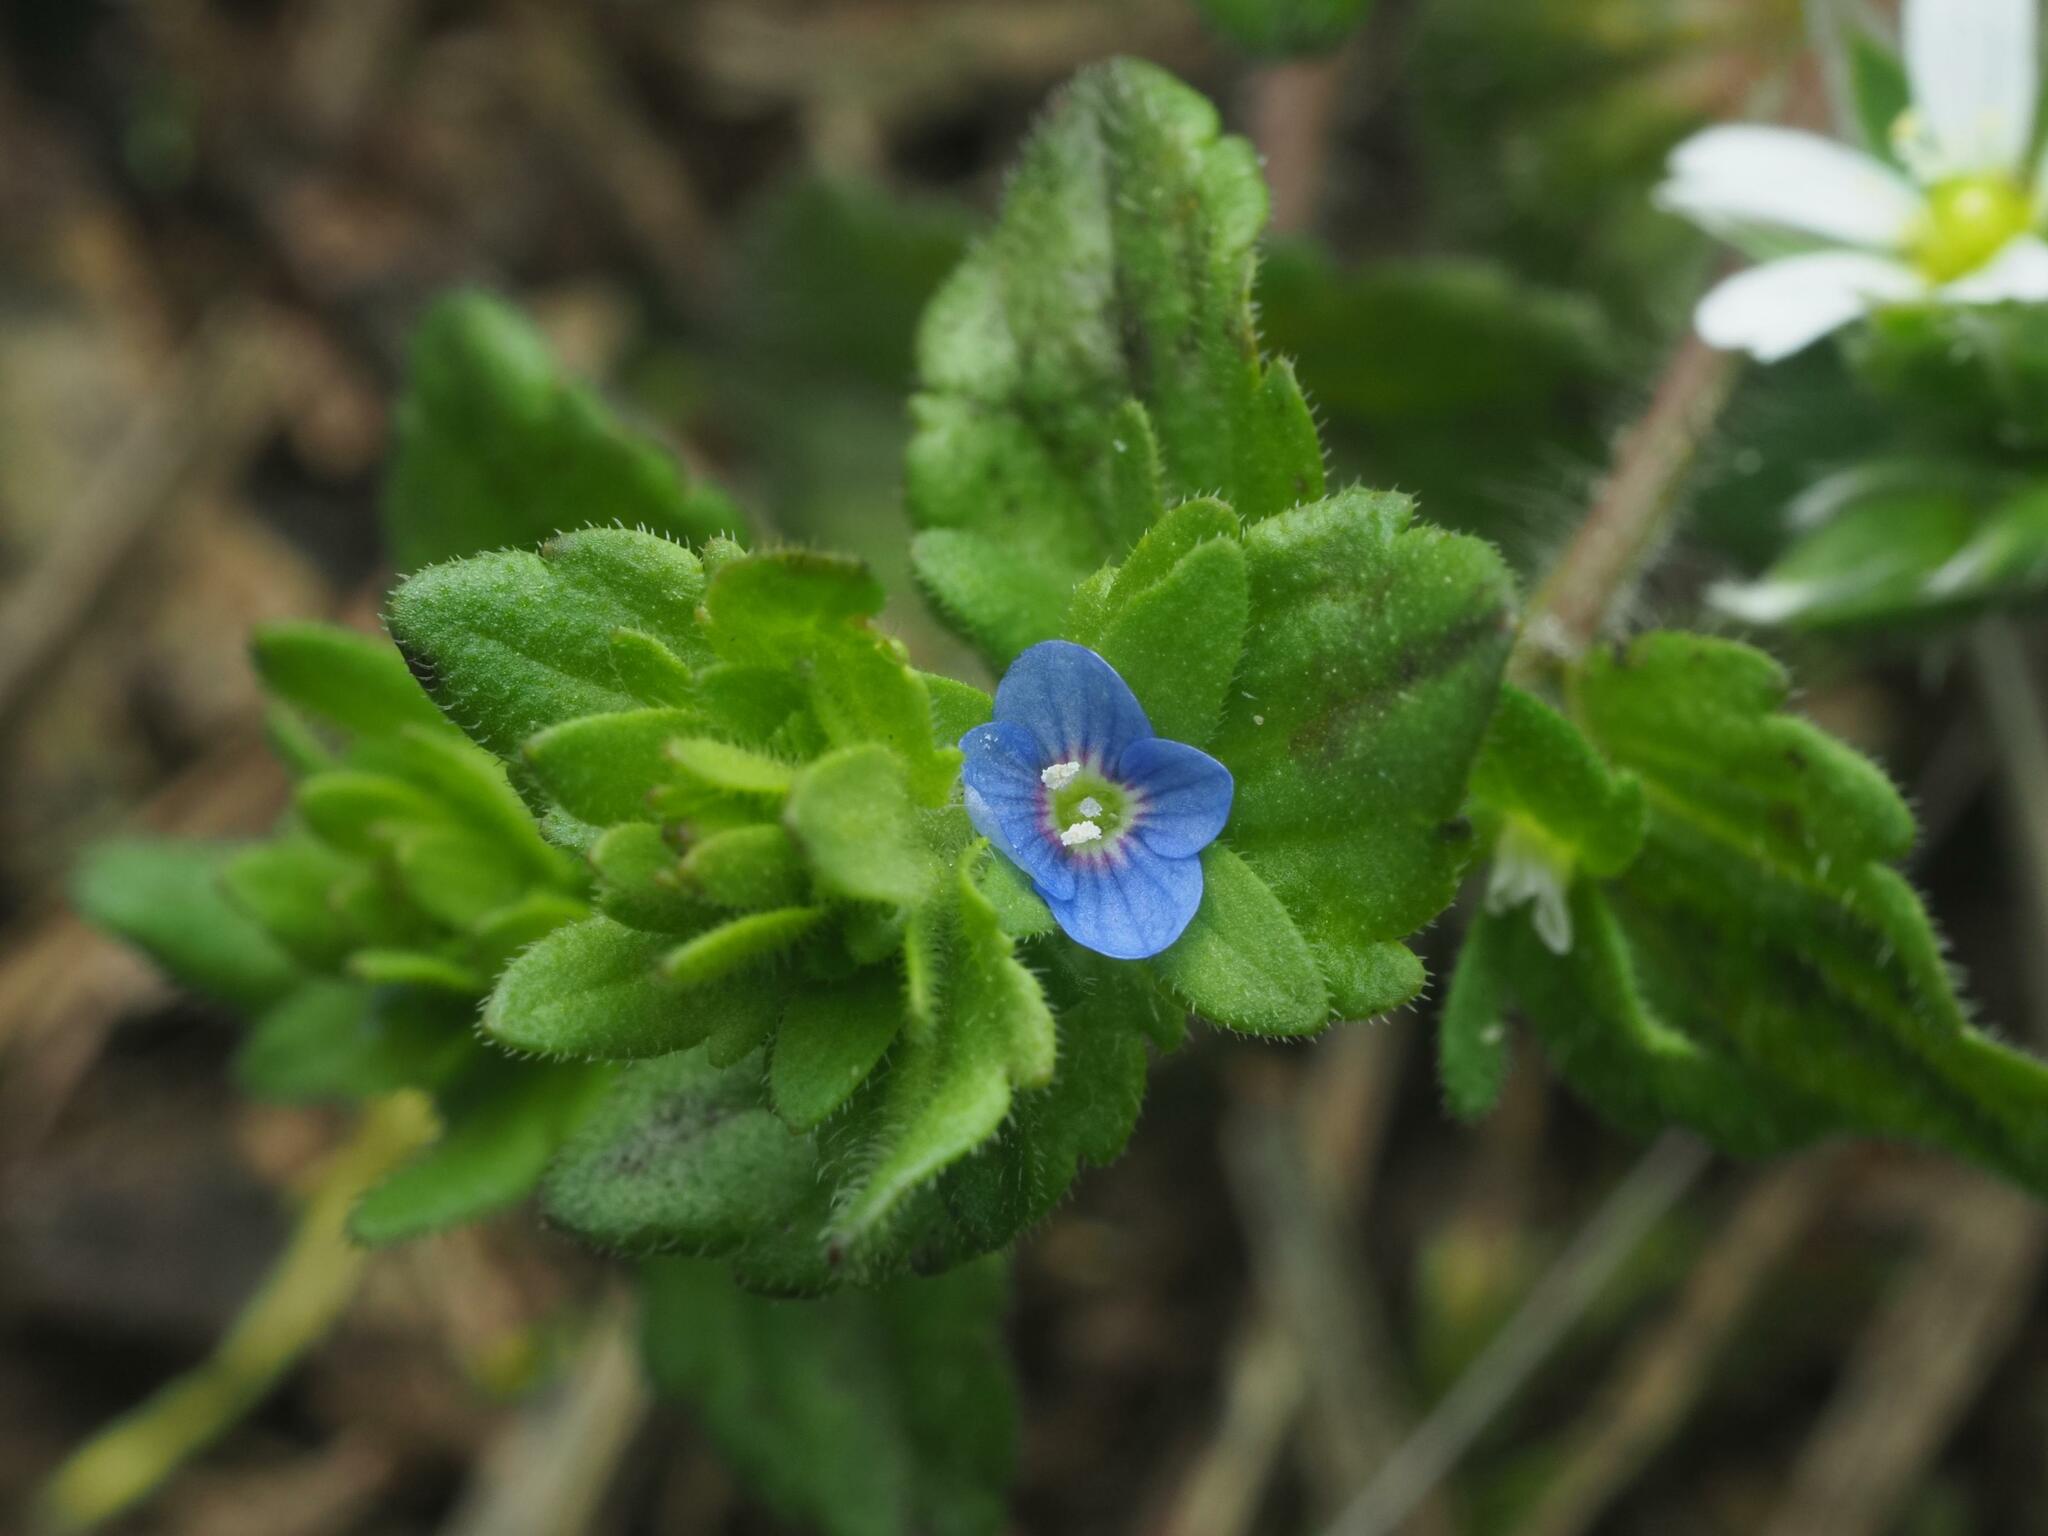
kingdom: Plantae
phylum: Tracheophyta
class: Magnoliopsida
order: Lamiales
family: Plantaginaceae
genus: Veronica
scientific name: Veronica arvensis
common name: Corn speedwell
